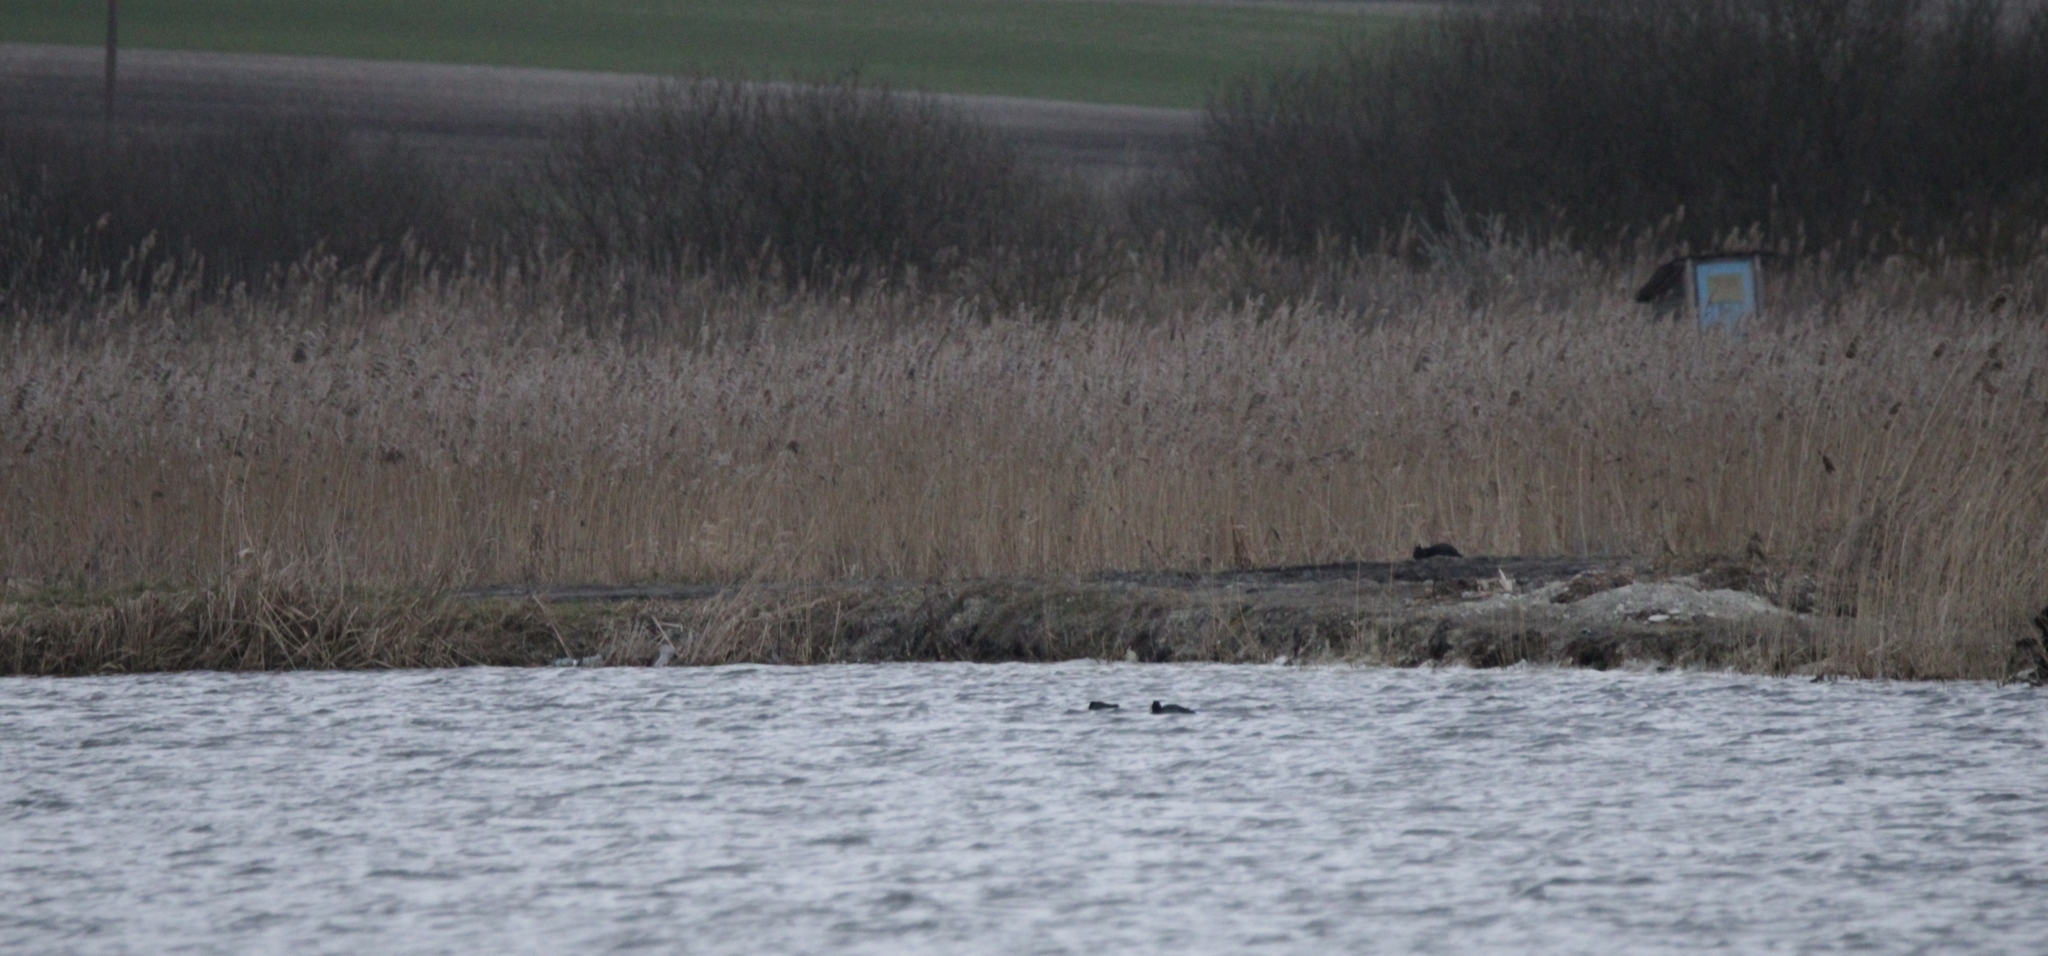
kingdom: Plantae
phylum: Tracheophyta
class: Liliopsida
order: Poales
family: Poaceae
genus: Phragmites
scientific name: Phragmites australis
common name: Common reed
